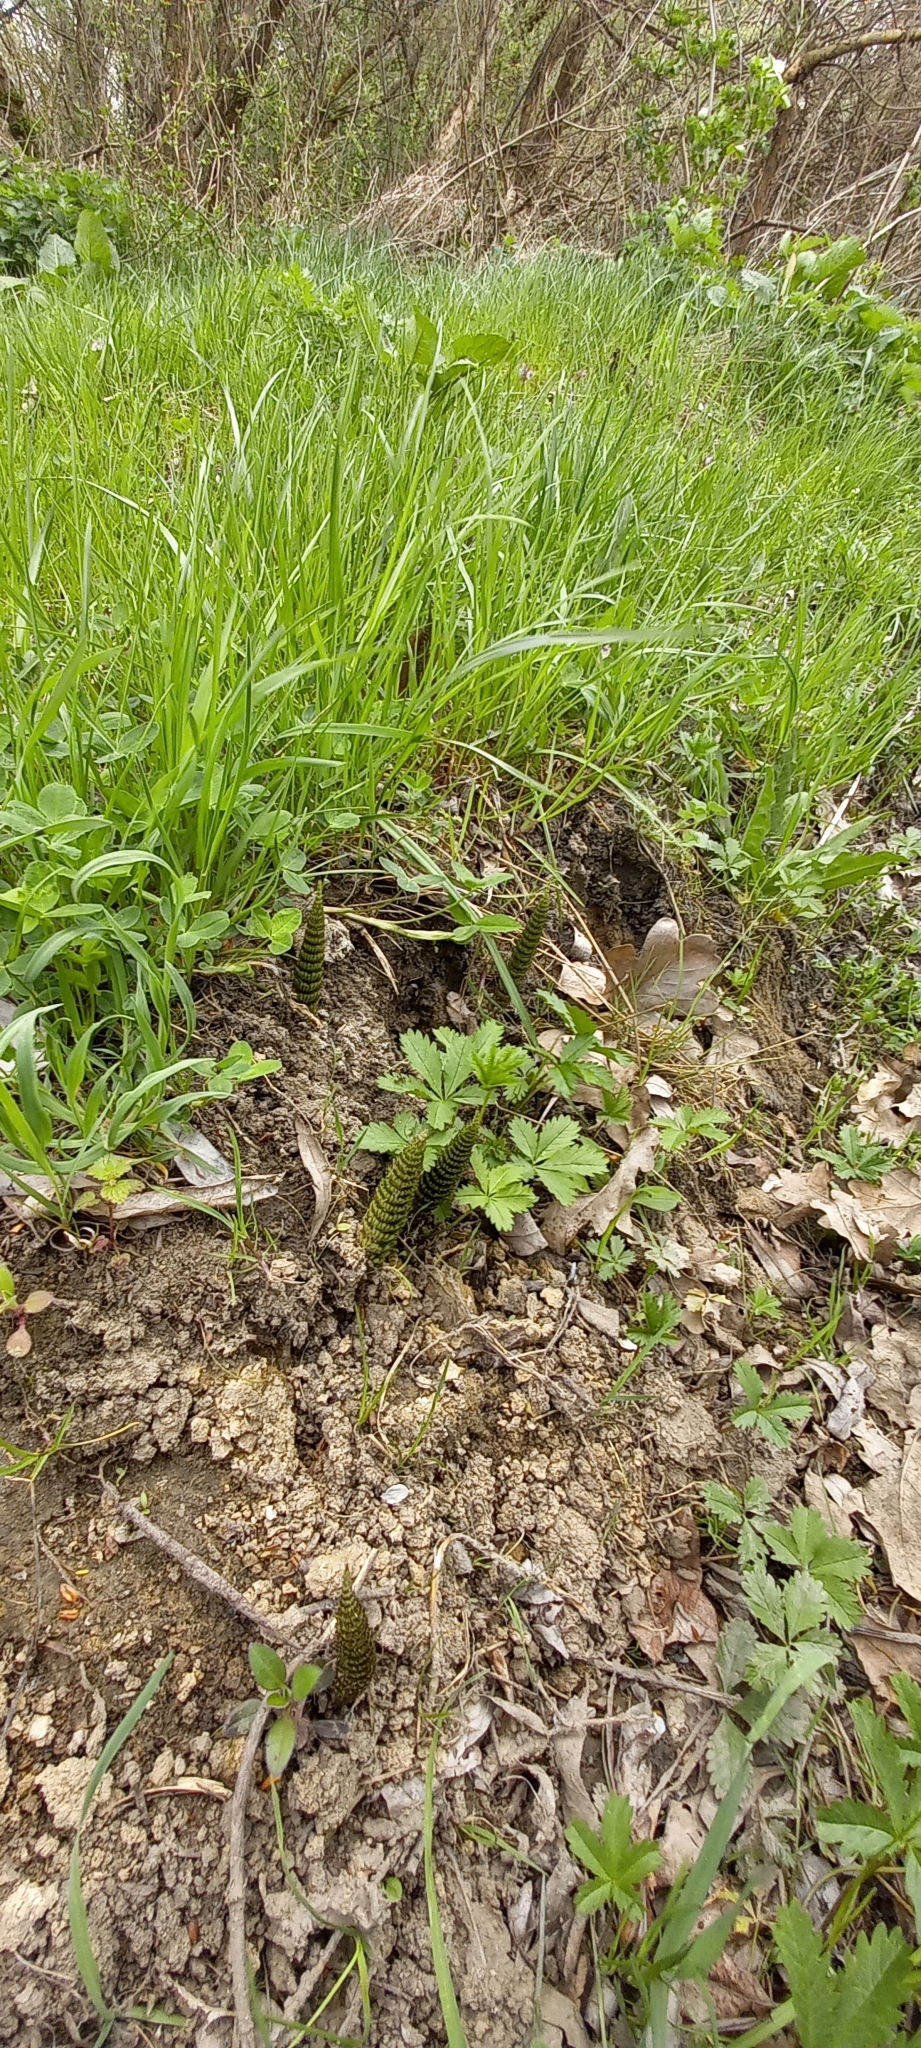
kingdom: Plantae
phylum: Tracheophyta
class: Polypodiopsida
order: Equisetales
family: Equisetaceae
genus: Equisetum
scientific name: Equisetum telmateia
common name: Great horsetail
